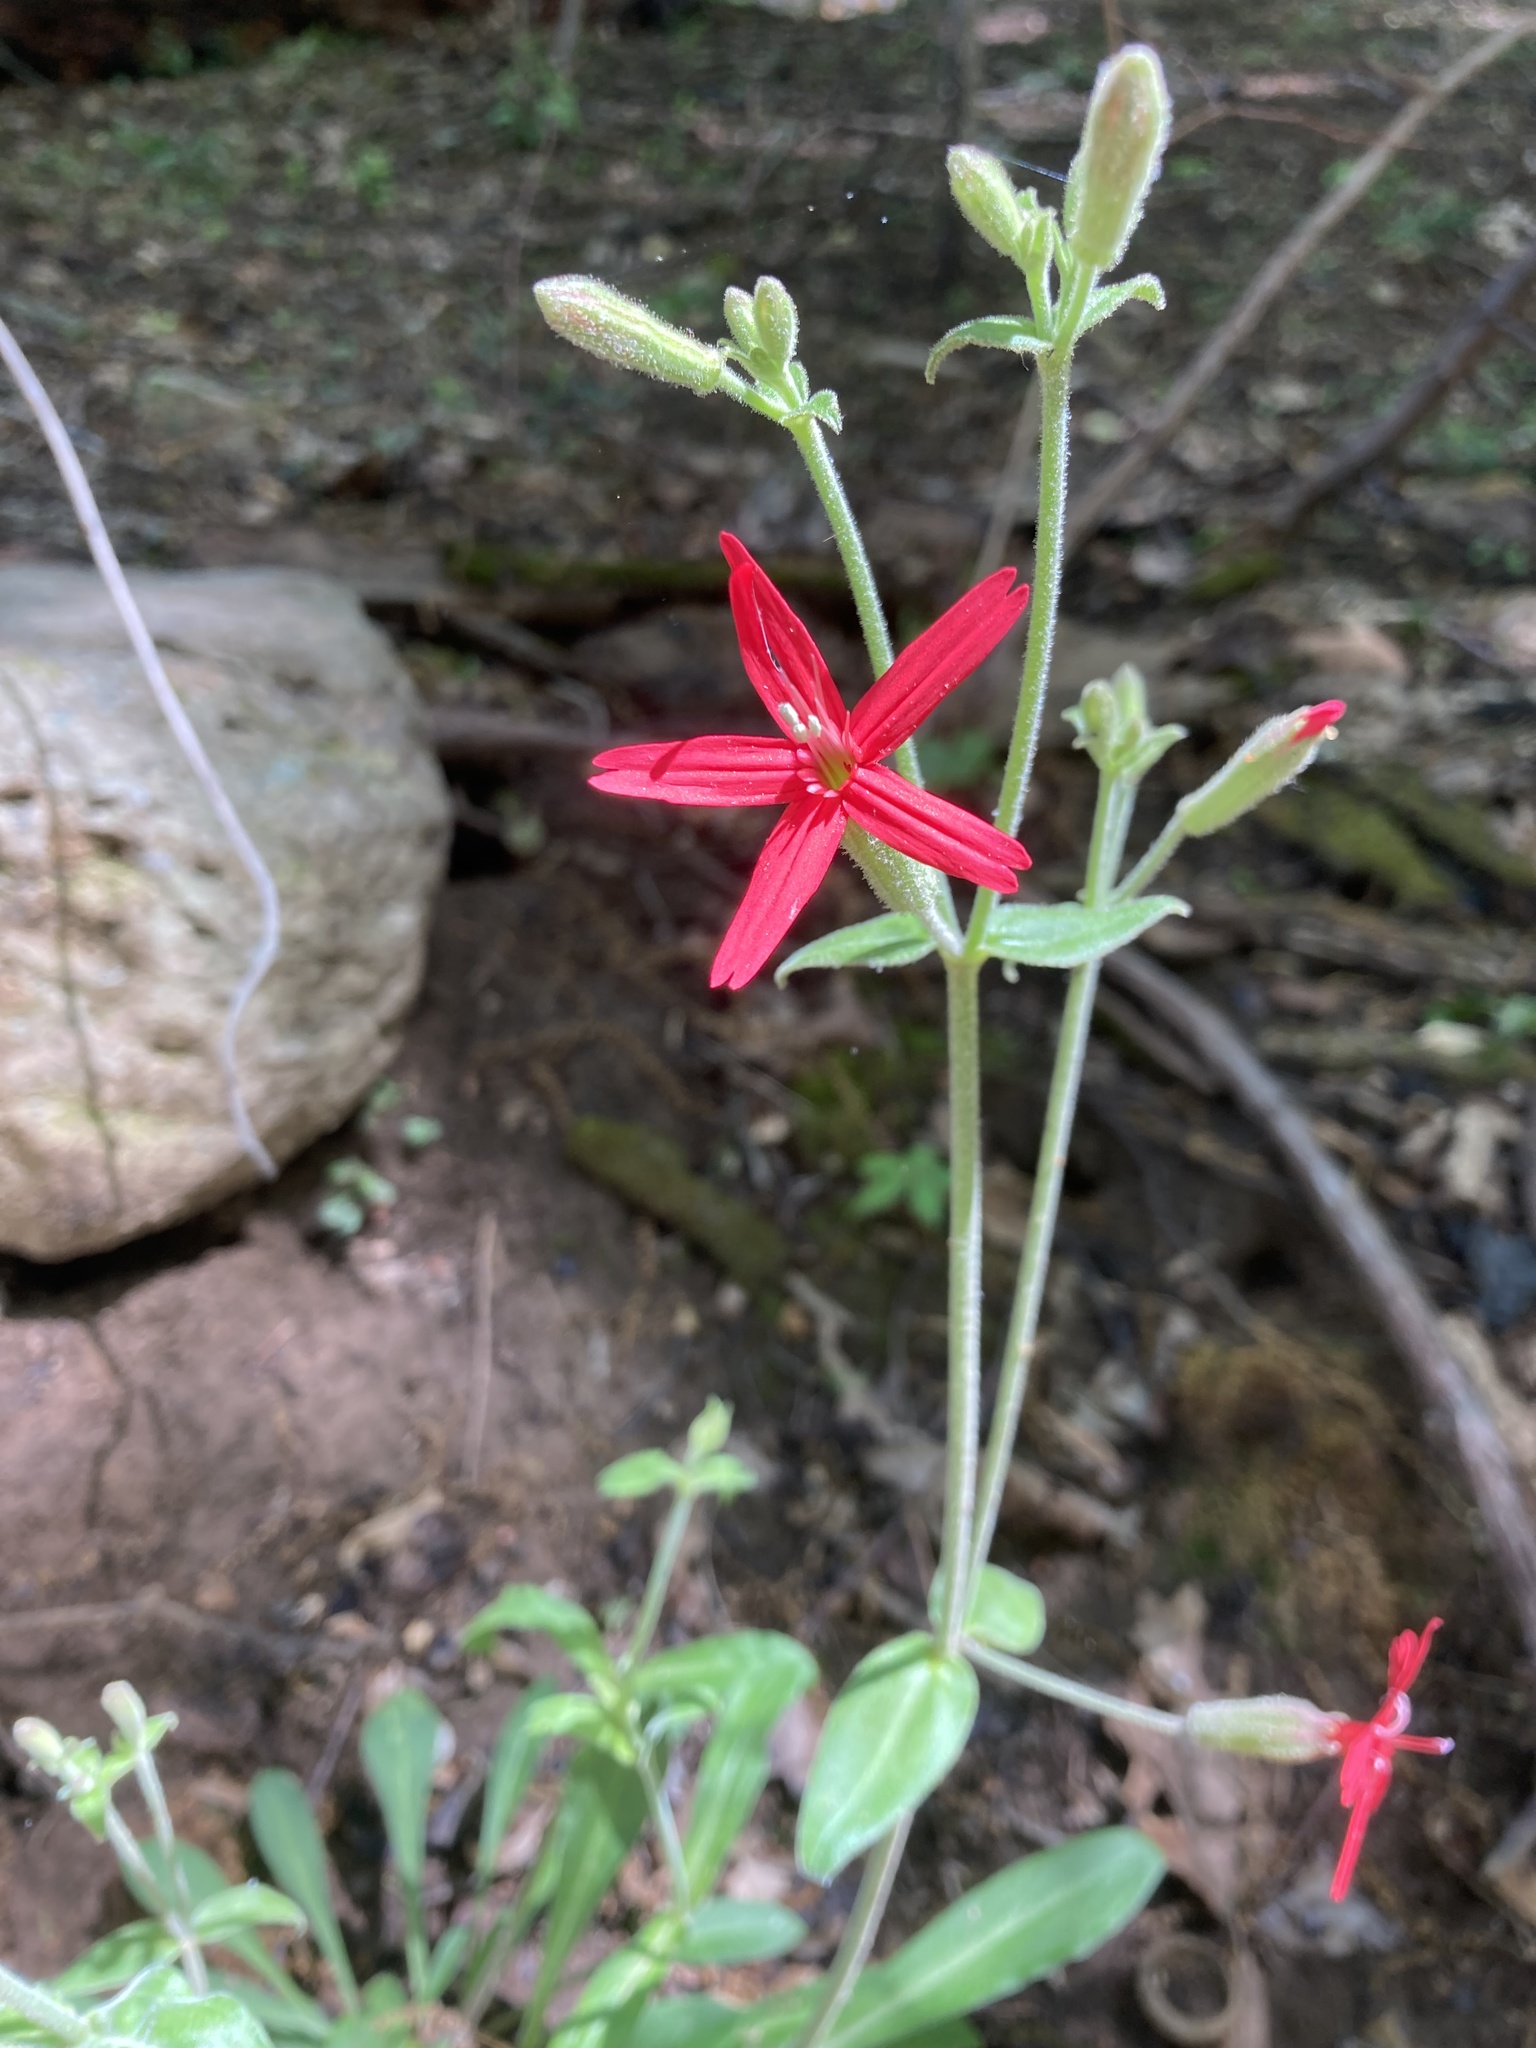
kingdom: Plantae
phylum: Tracheophyta
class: Magnoliopsida
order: Caryophyllales
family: Caryophyllaceae
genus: Silene
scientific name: Silene virginica
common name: Fire-pink
